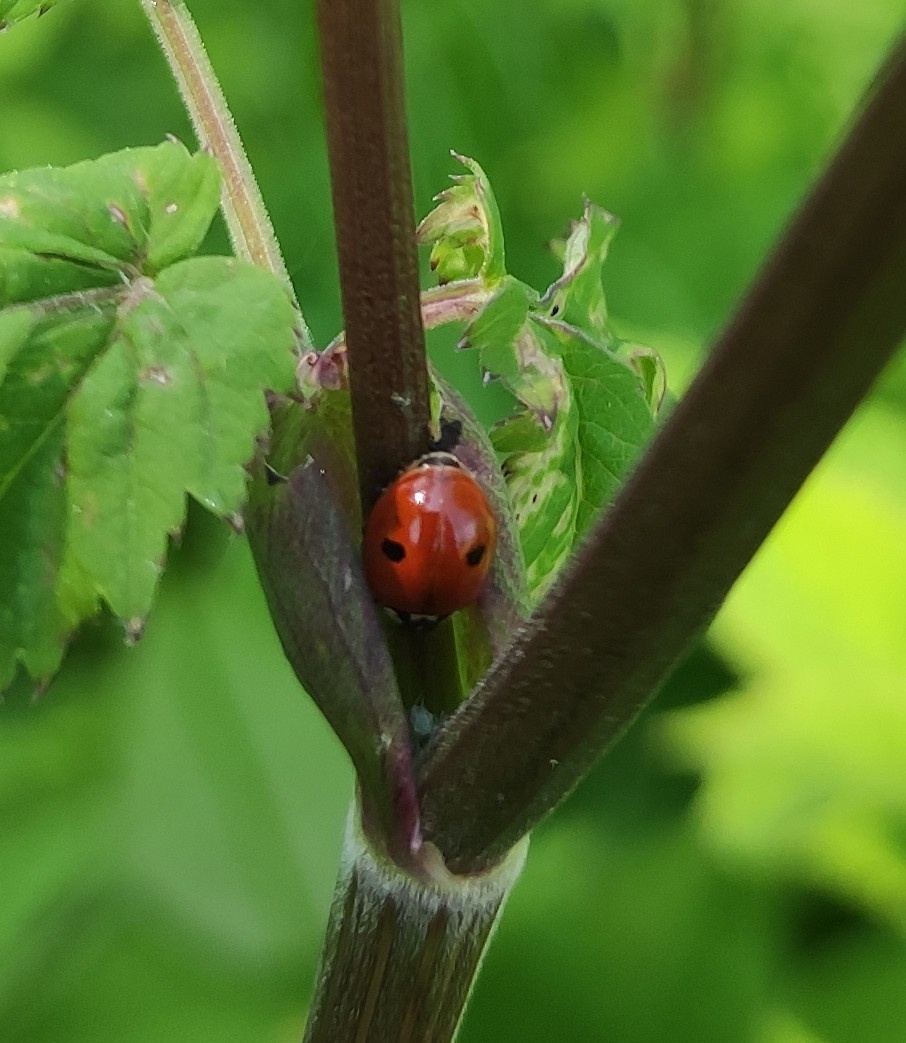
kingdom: Animalia
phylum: Arthropoda
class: Insecta
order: Coleoptera
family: Coccinellidae
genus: Adalia
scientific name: Adalia bipunctata
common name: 2-spot ladybird
